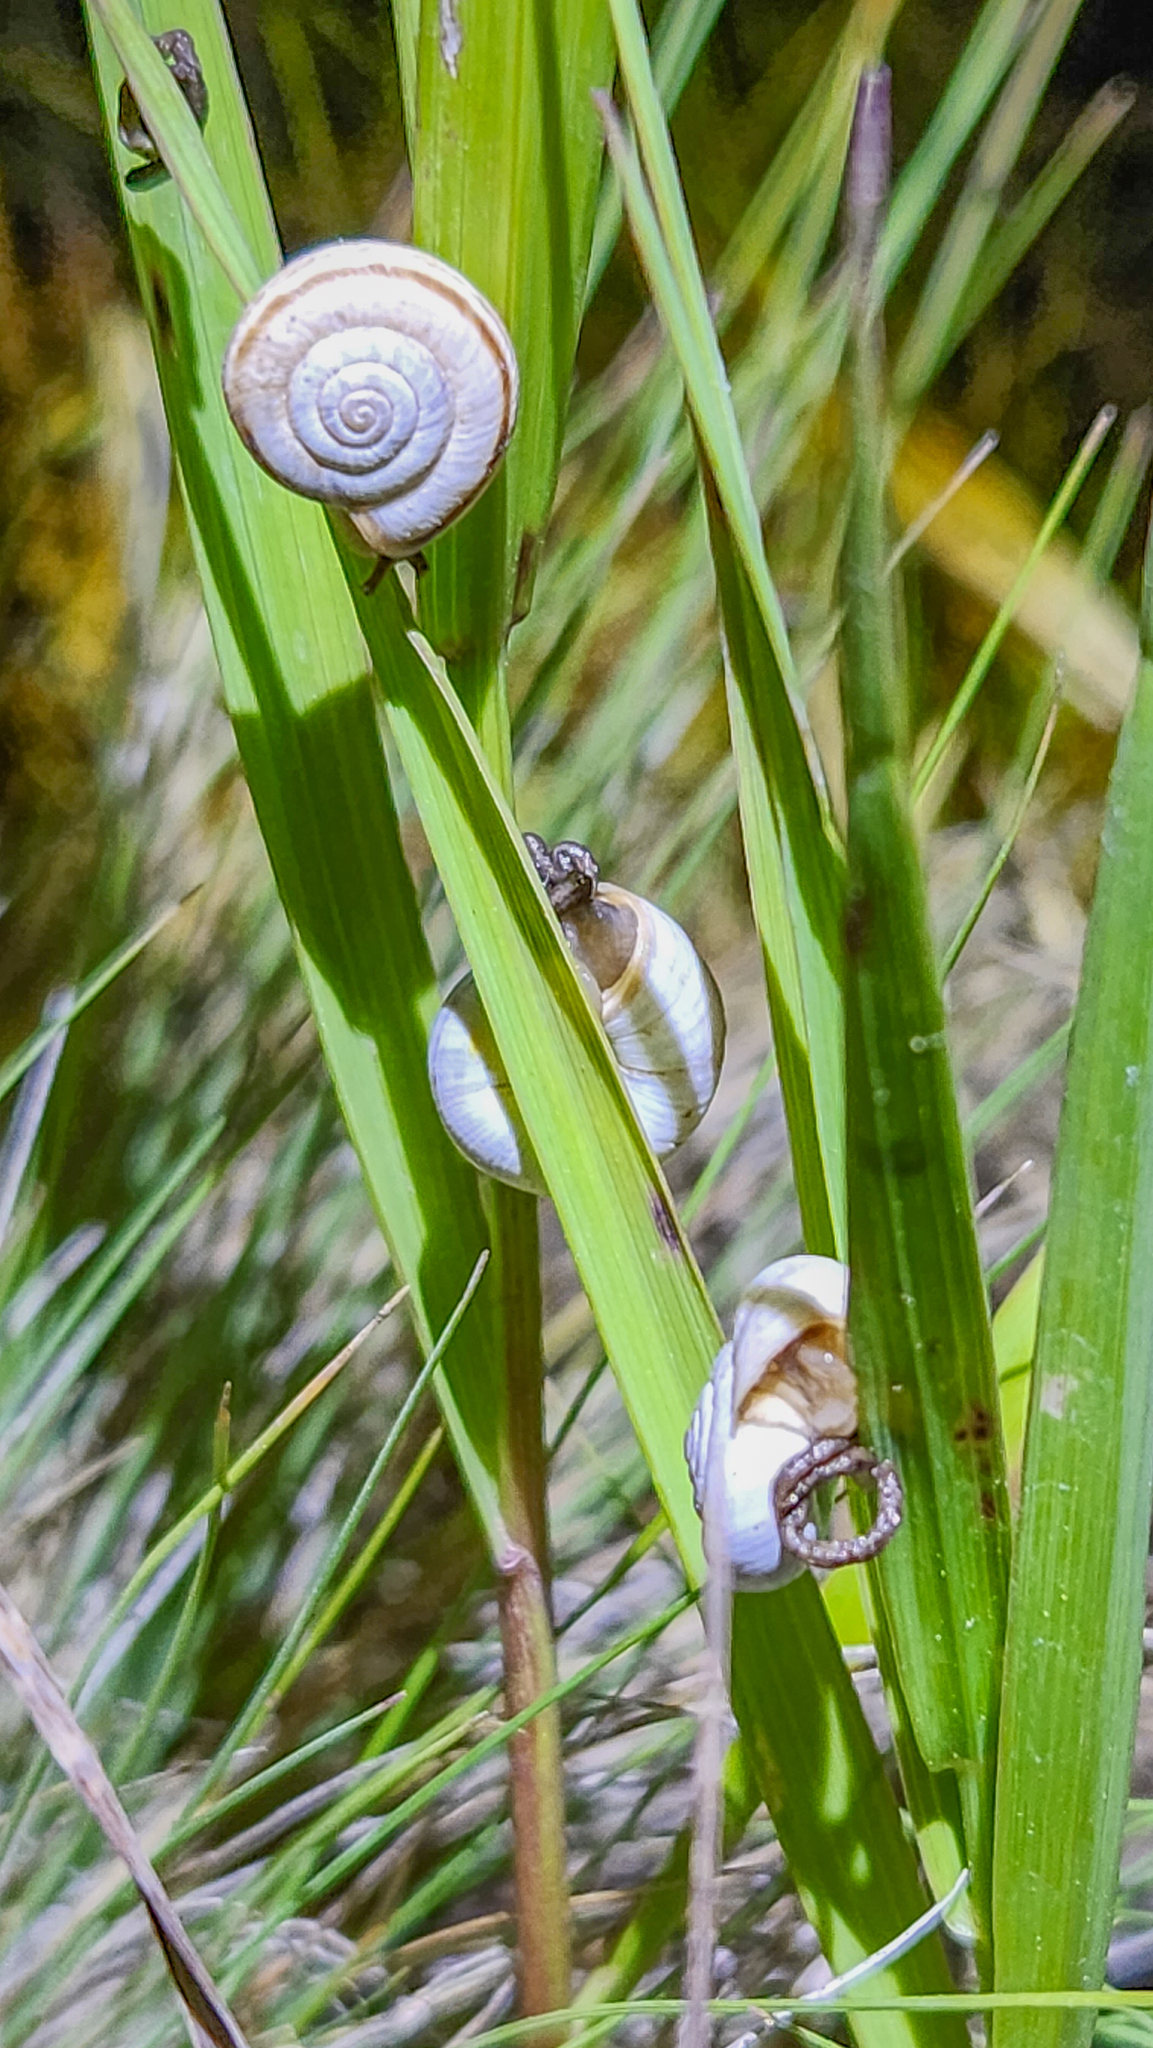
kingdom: Animalia
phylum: Mollusca
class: Gastropoda
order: Stylommatophora
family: Geomitridae
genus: Xerolenta
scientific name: Xerolenta obvia
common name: White heath snail
